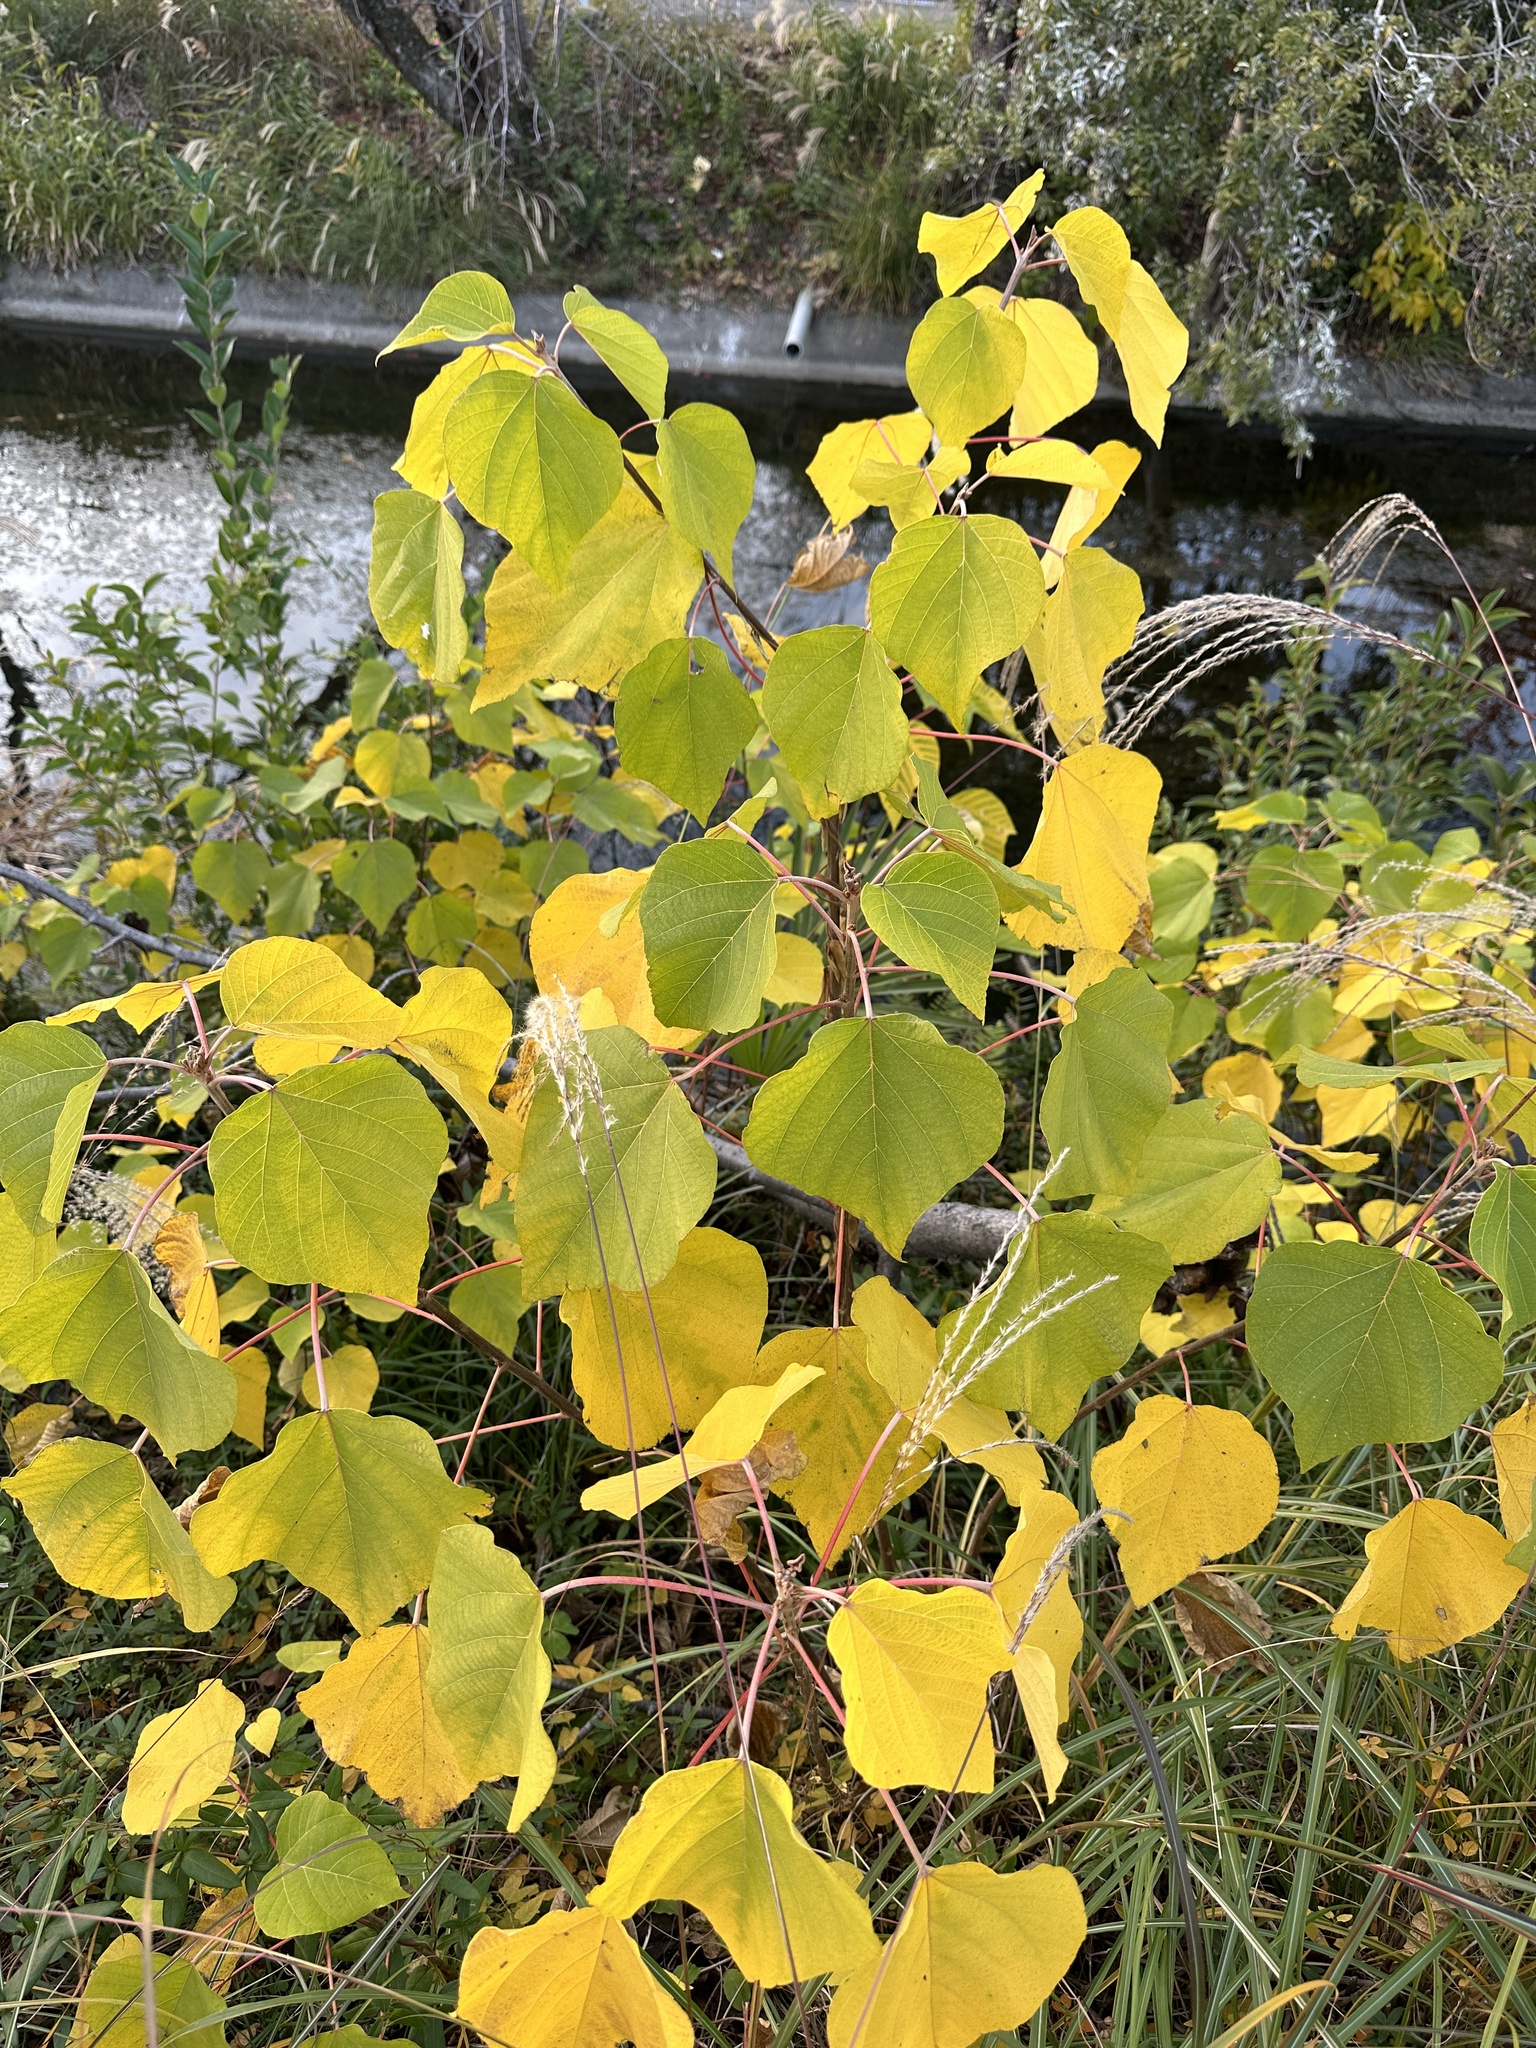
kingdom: Plantae
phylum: Tracheophyta
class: Magnoliopsida
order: Malpighiales
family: Euphorbiaceae
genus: Mallotus
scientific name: Mallotus japonicus
